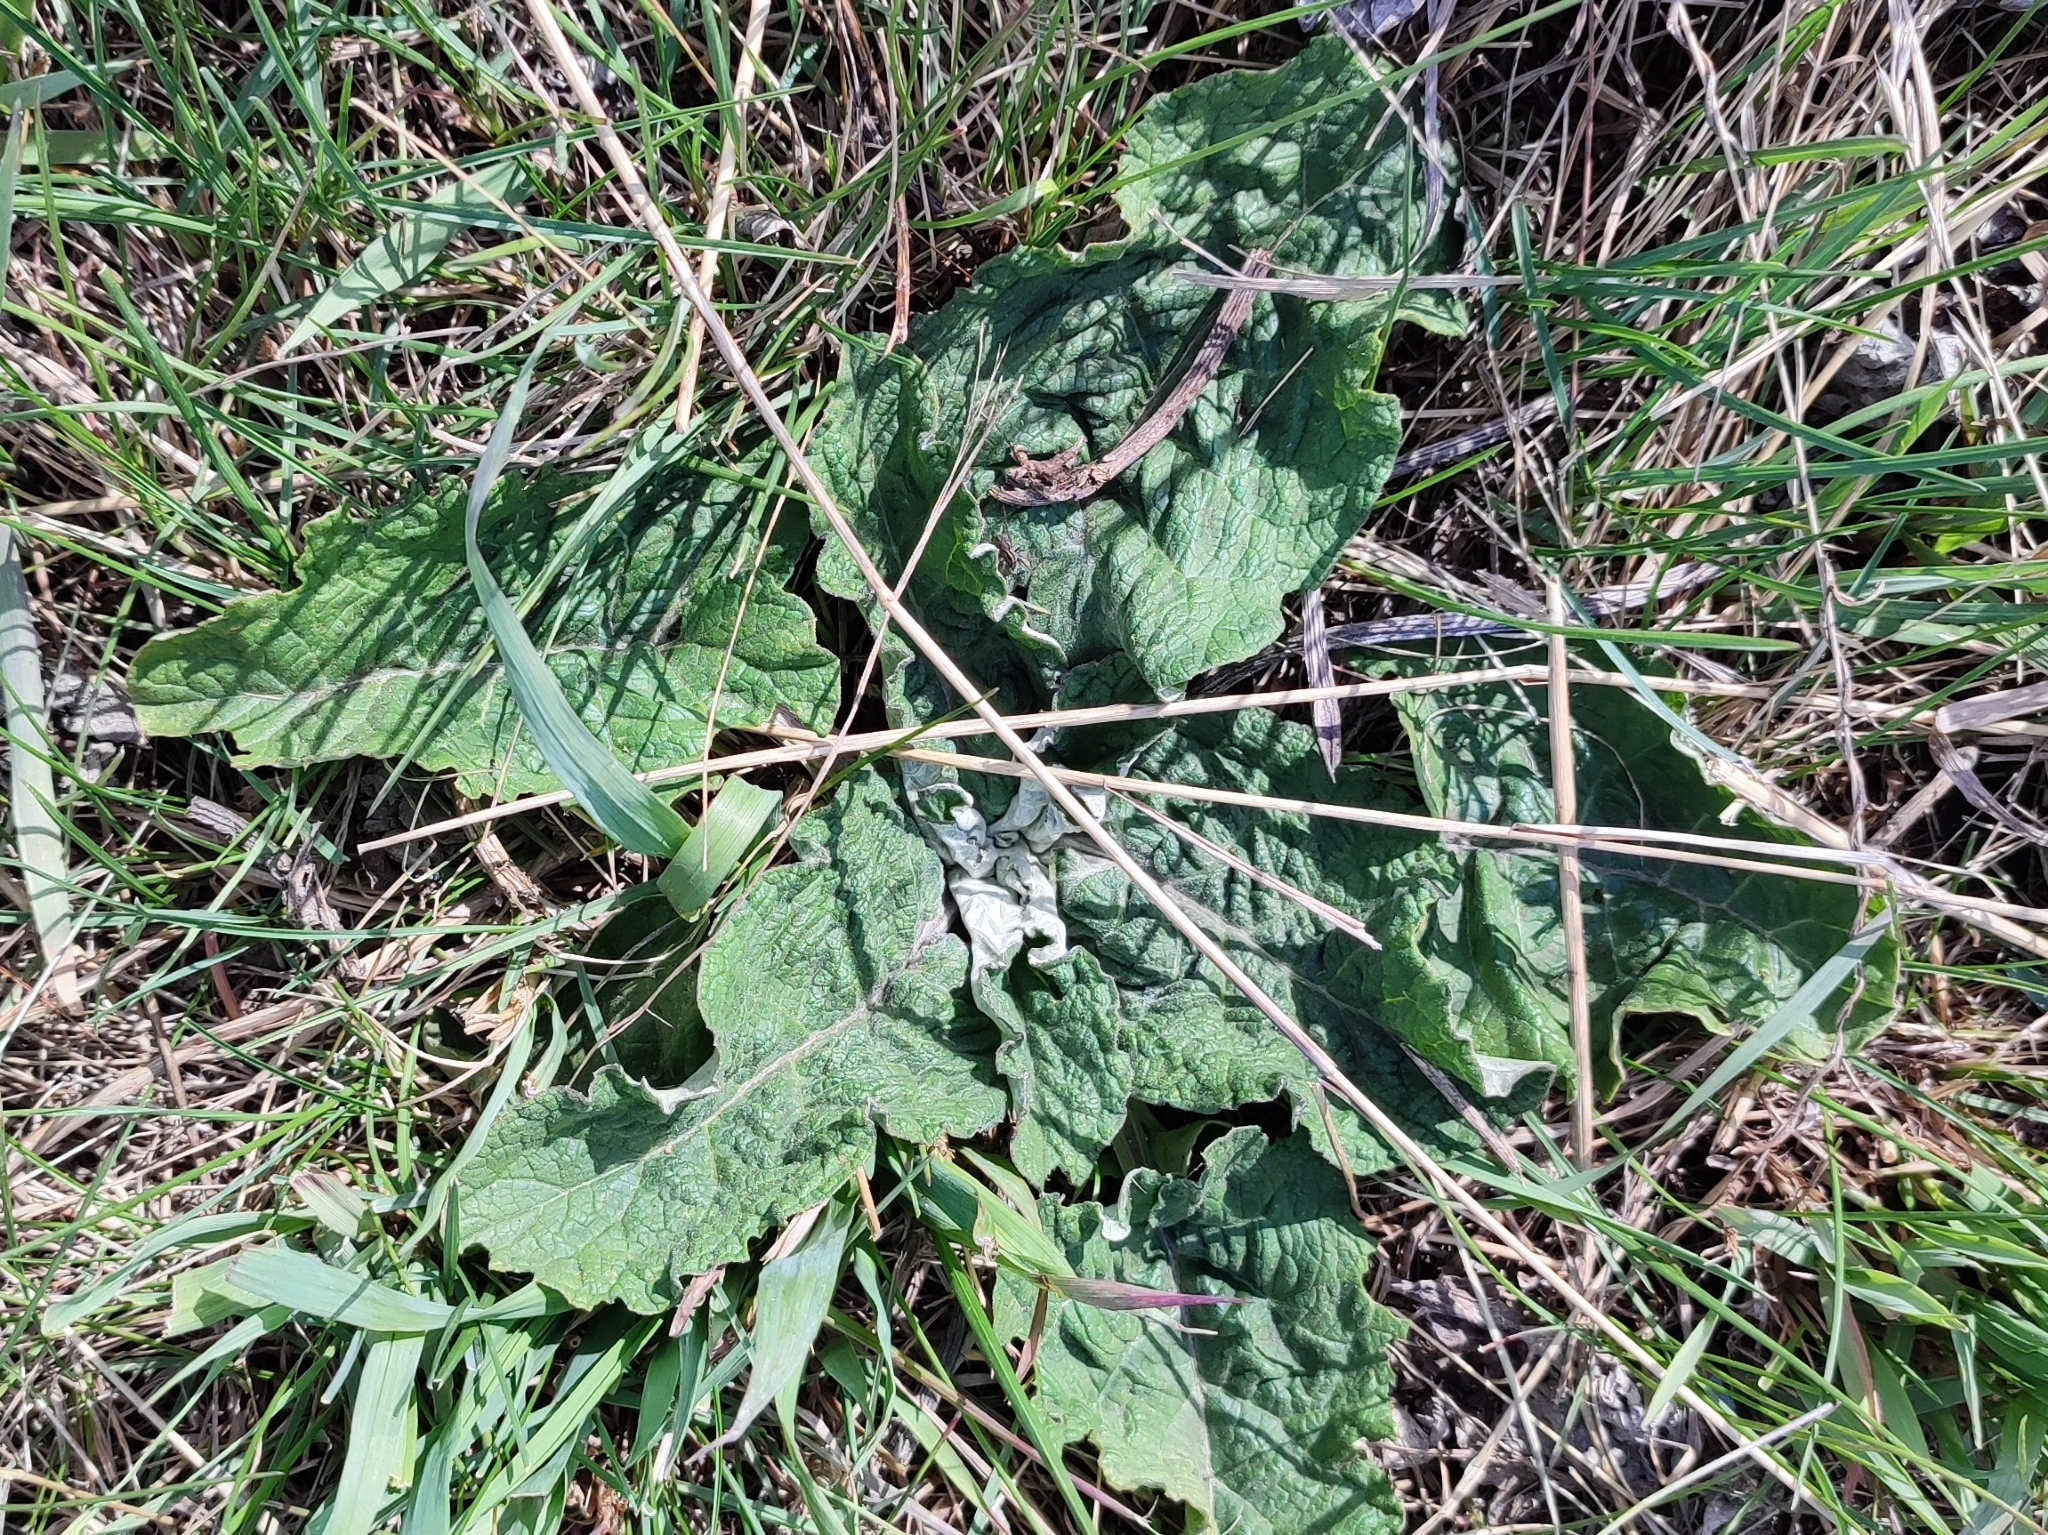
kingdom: Plantae
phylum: Tracheophyta
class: Magnoliopsida
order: Asterales
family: Asteraceae
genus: Arctium
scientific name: Arctium tomentosum
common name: Woolly burdock
